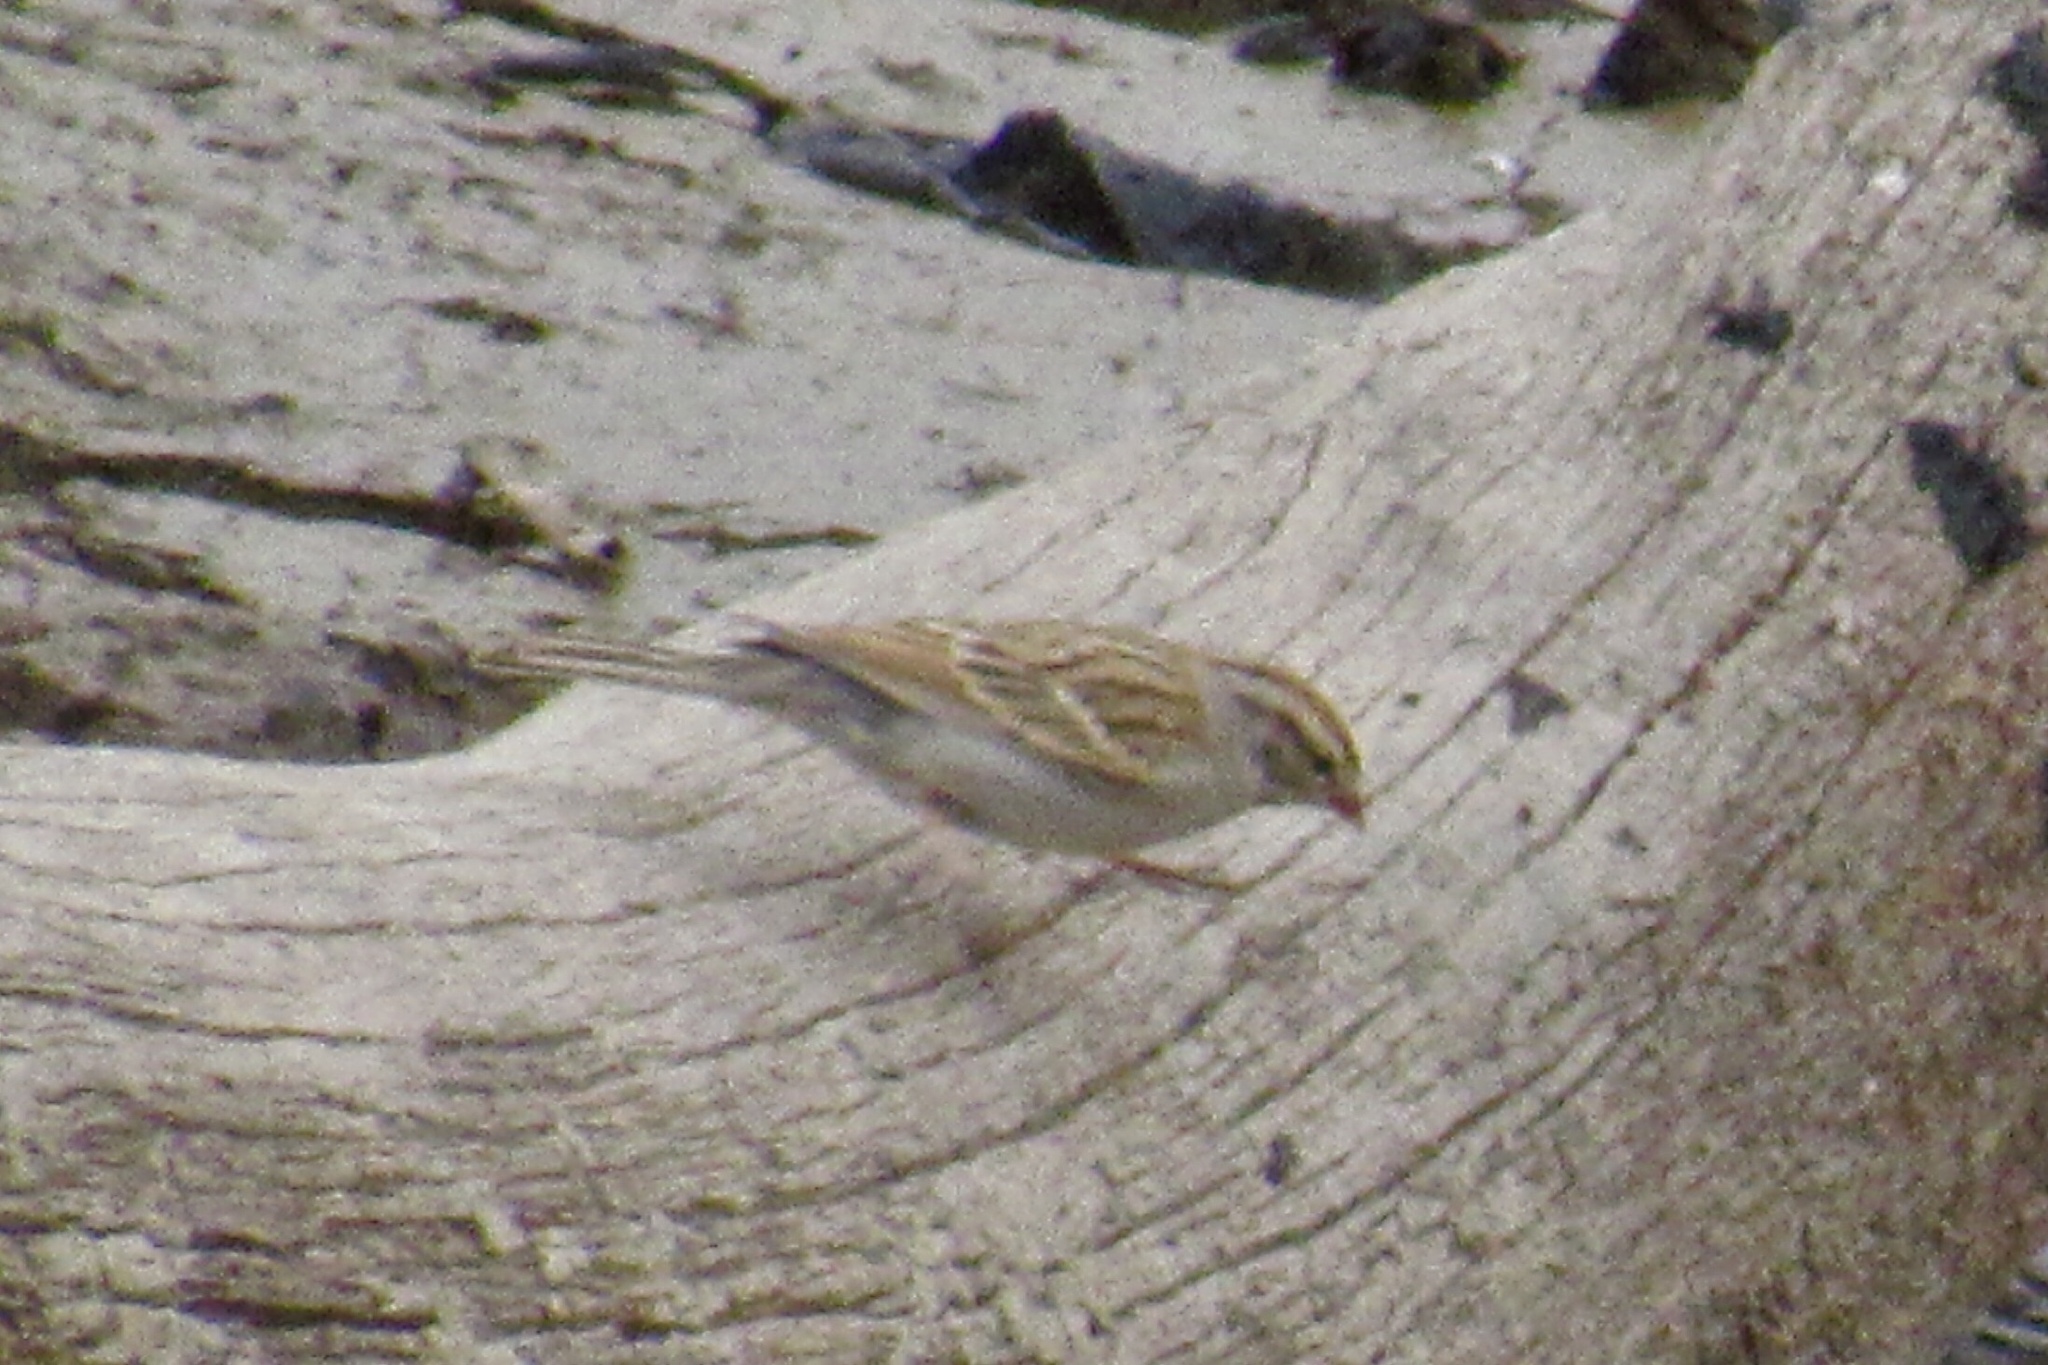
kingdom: Animalia
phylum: Chordata
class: Aves
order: Passeriformes
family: Passerellidae
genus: Spizella
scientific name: Spizella passerina
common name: Chipping sparrow
